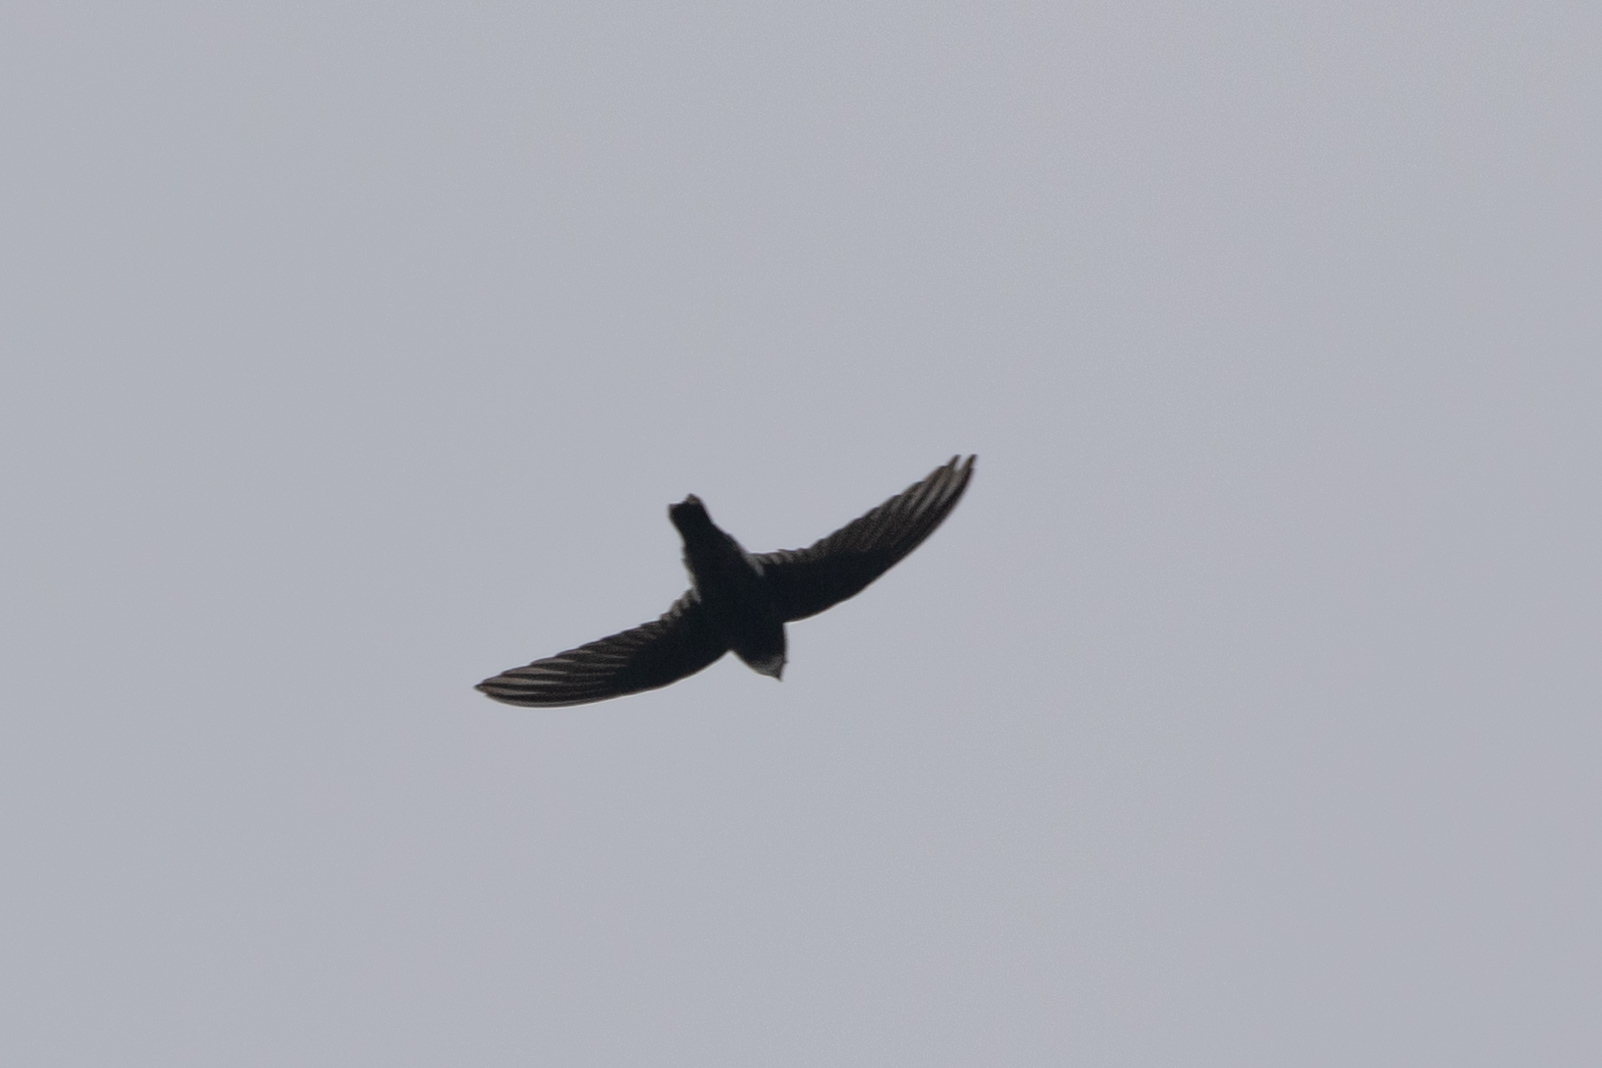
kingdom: Animalia
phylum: Chordata
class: Aves
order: Apodiformes
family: Apodidae
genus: Apus
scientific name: Apus nipalensis
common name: House swift
